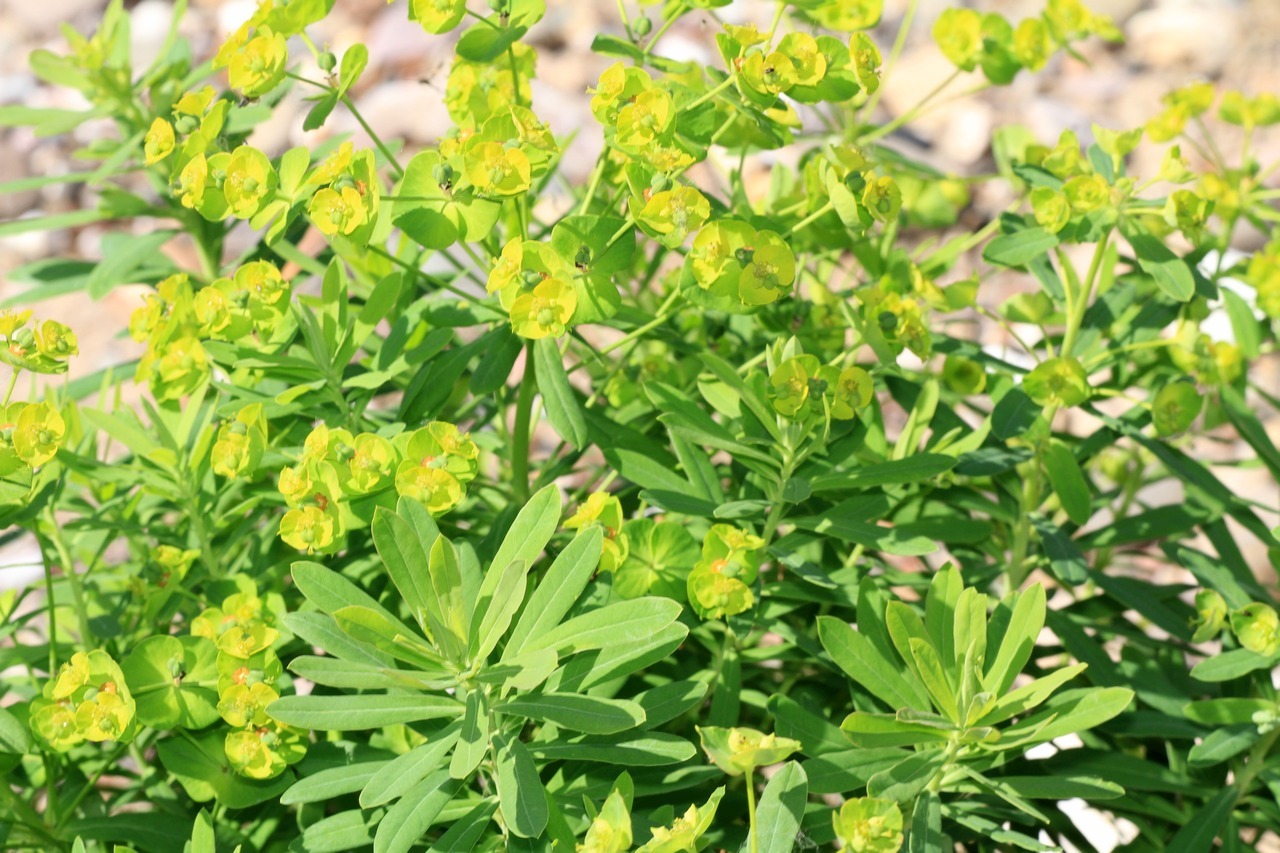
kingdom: Plantae
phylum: Tracheophyta
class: Magnoliopsida
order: Malpighiales
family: Euphorbiaceae
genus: Euphorbia
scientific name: Euphorbia esula
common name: Leafy spurge
